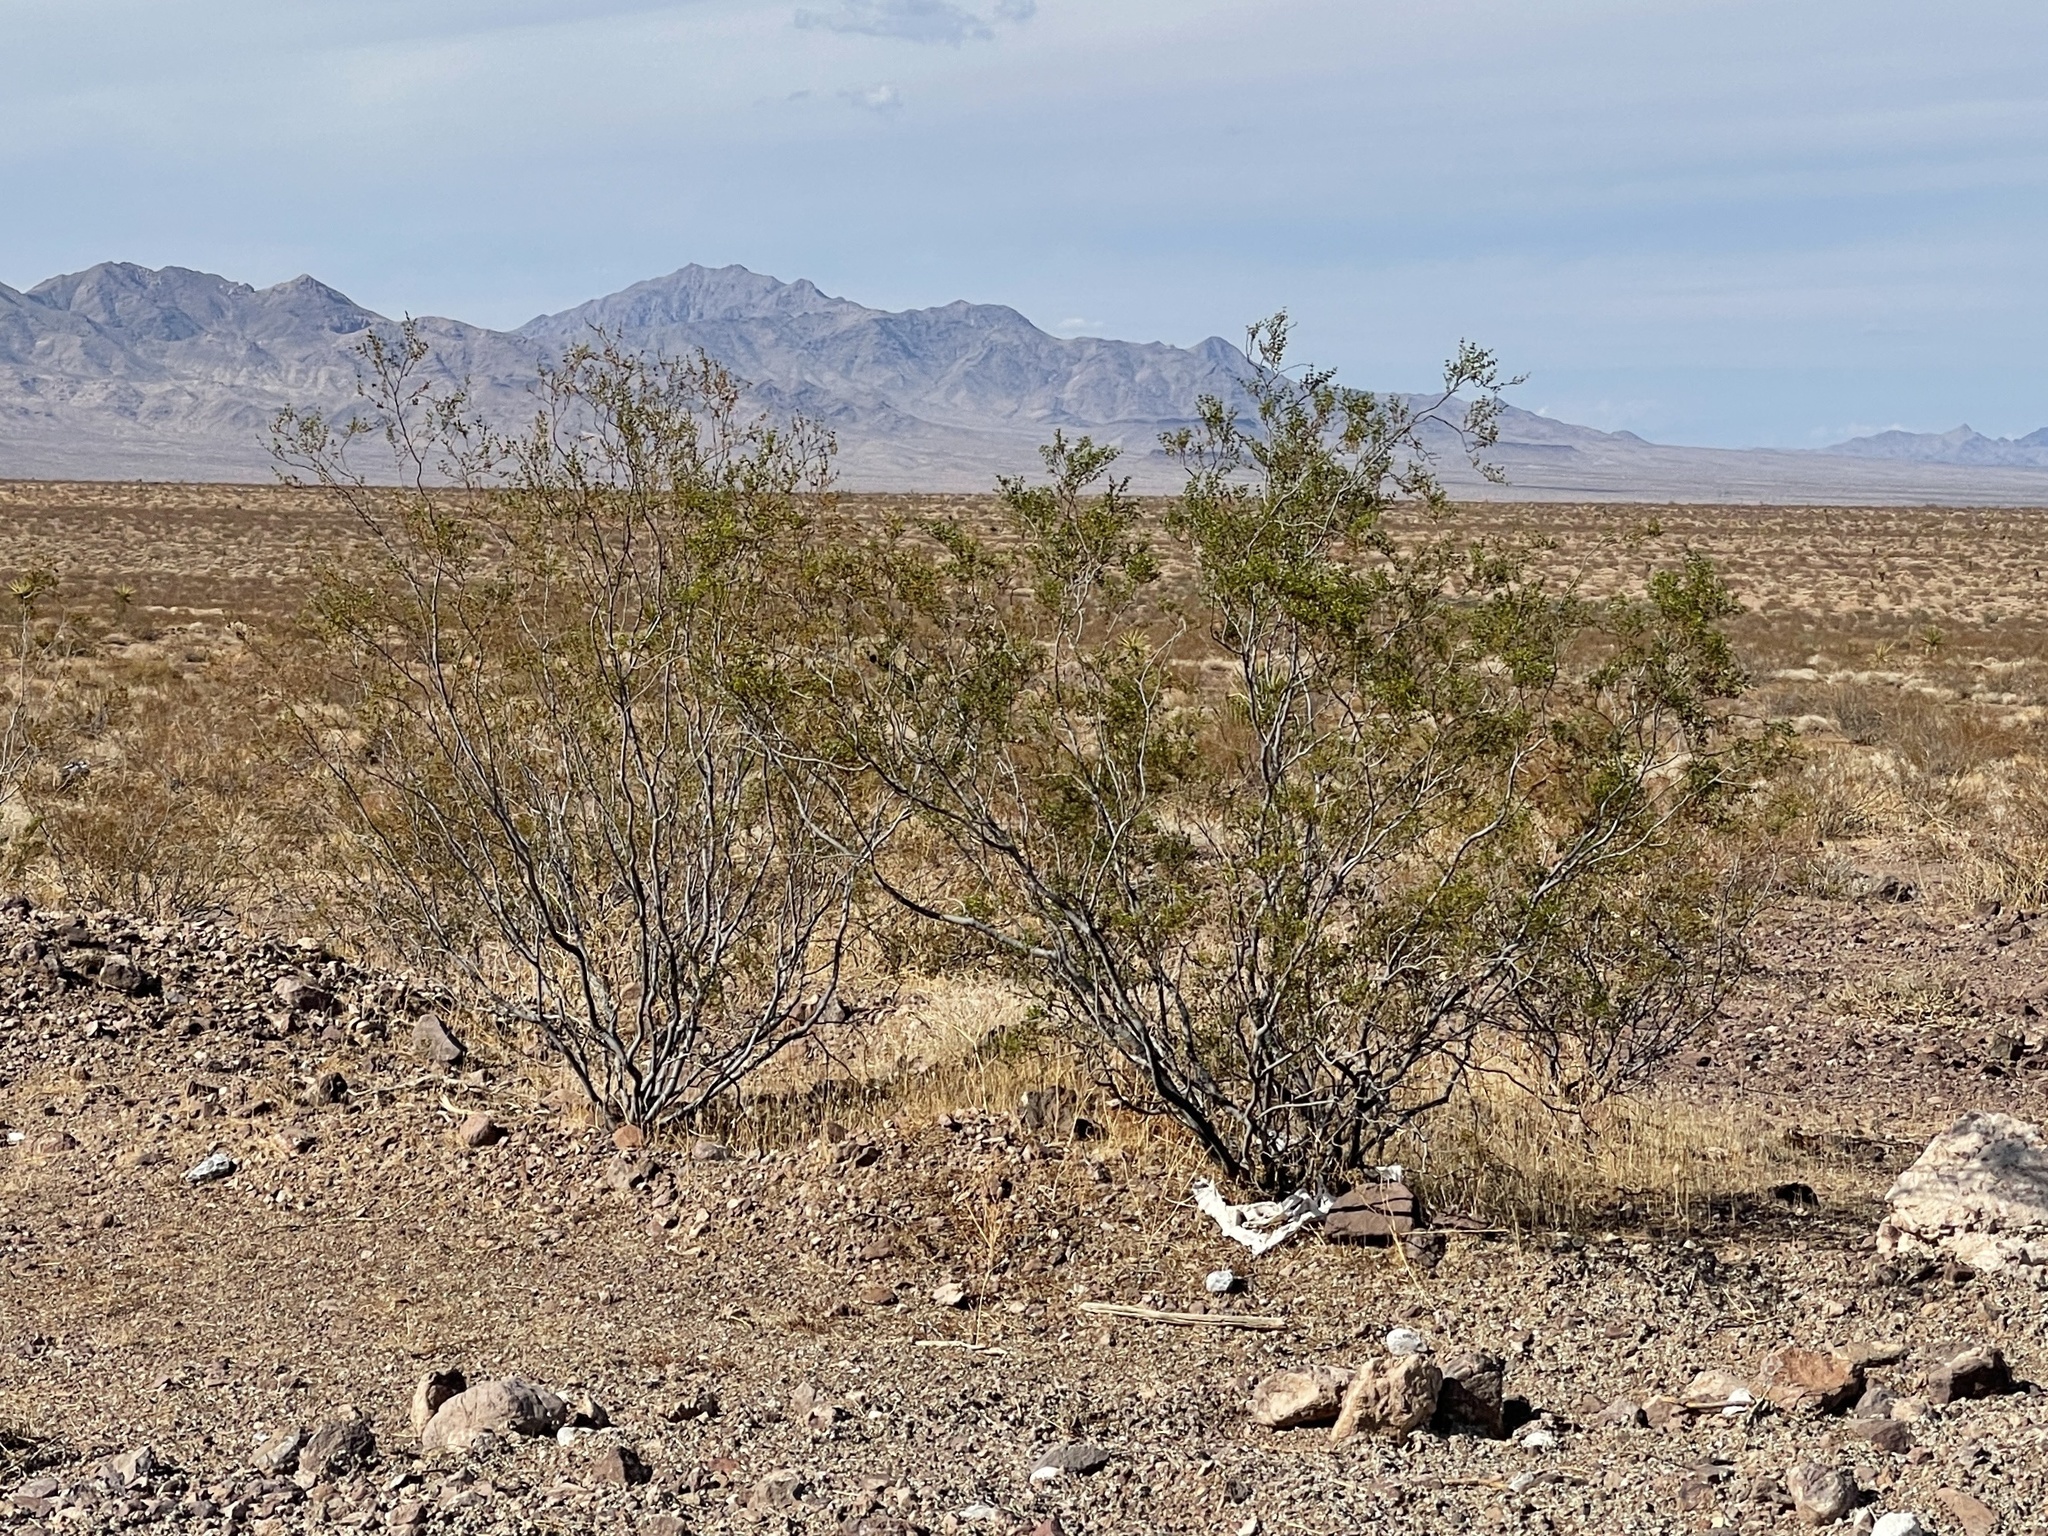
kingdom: Plantae
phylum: Tracheophyta
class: Magnoliopsida
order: Zygophyllales
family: Zygophyllaceae
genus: Larrea
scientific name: Larrea tridentata
